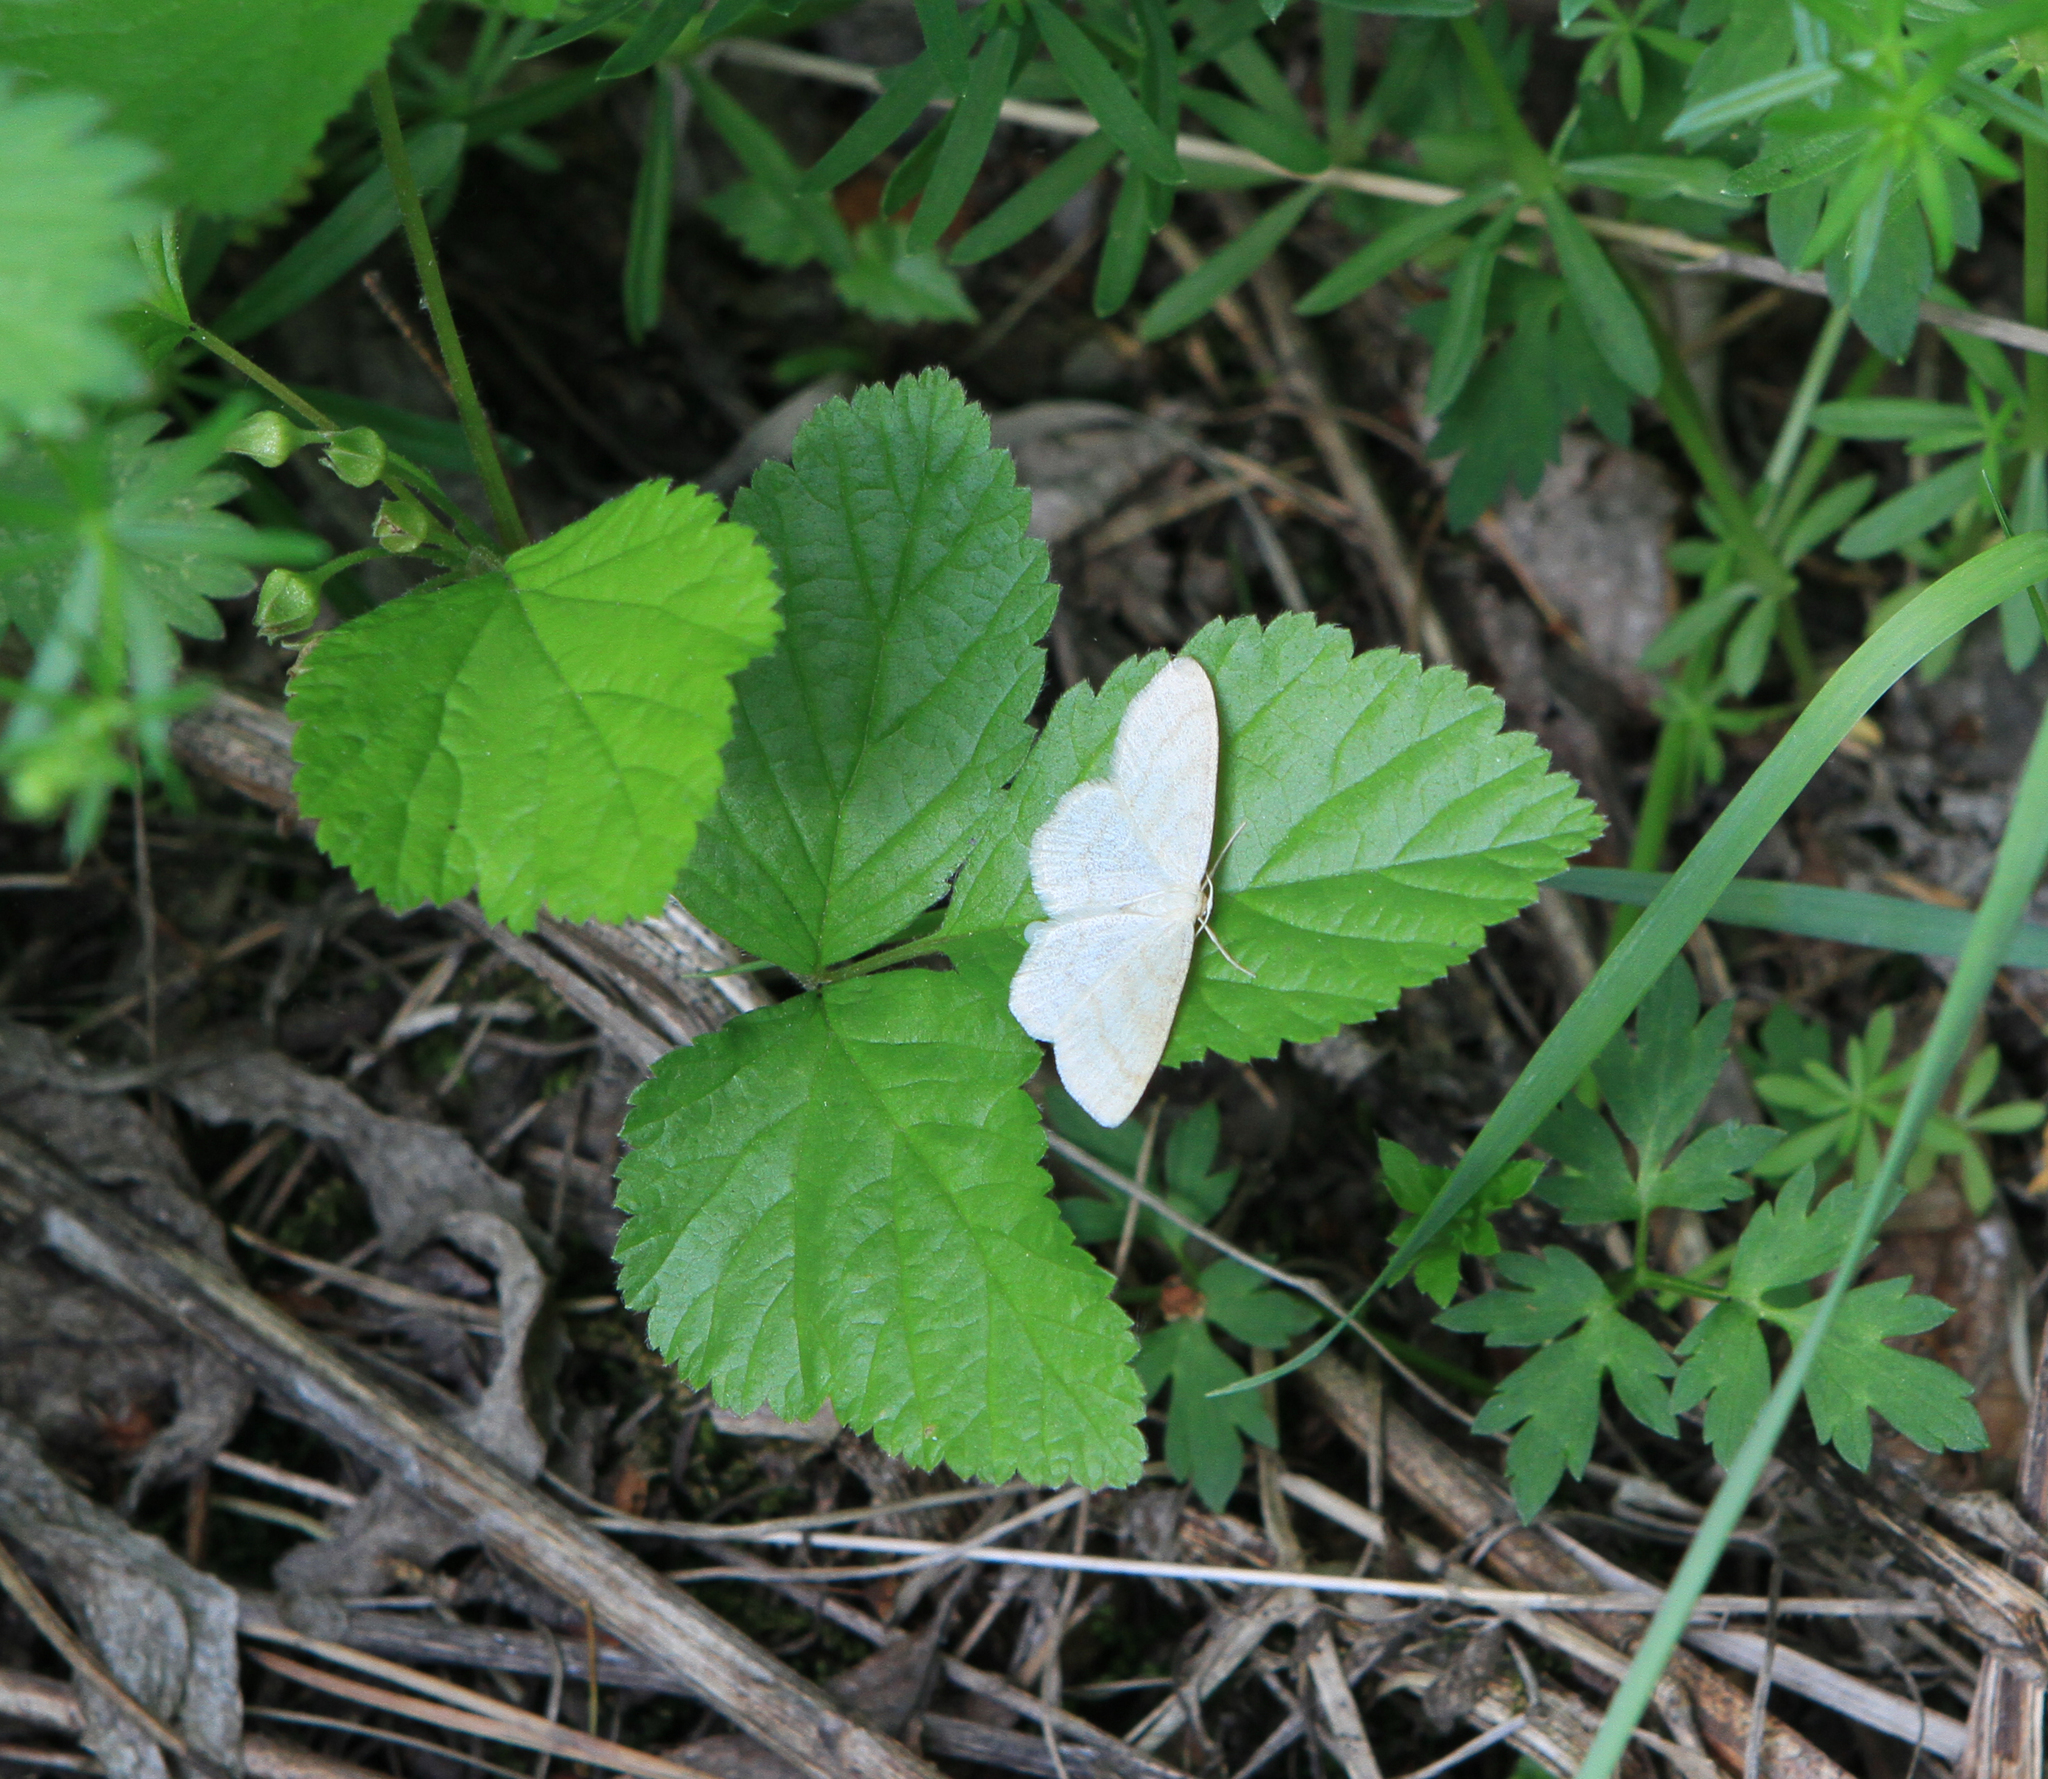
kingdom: Plantae
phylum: Tracheophyta
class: Magnoliopsida
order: Rosales
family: Rosaceae
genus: Rubus
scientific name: Rubus saxatilis
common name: Stone bramble
